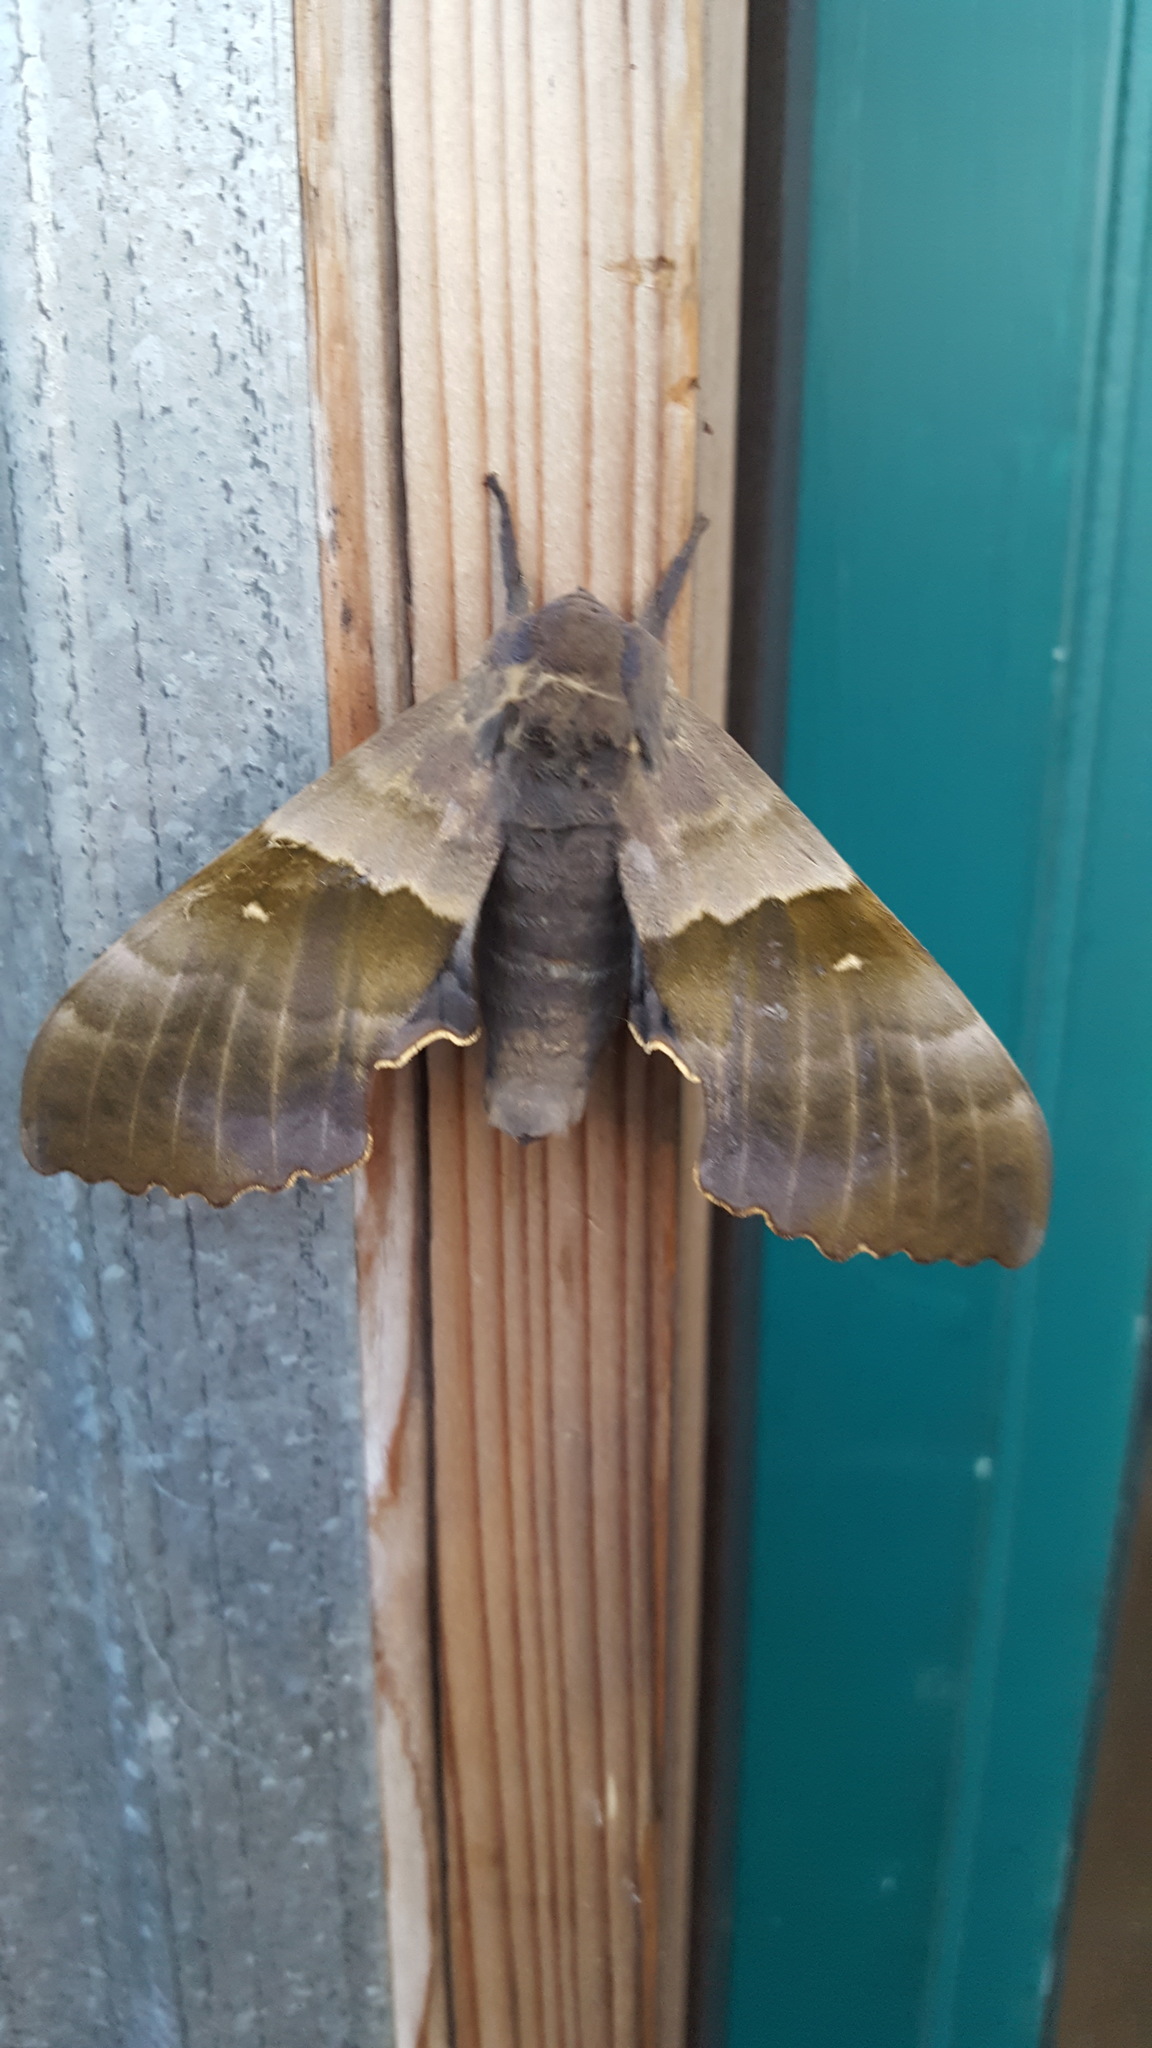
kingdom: Animalia
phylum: Arthropoda
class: Insecta
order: Lepidoptera
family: Sphingidae
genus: Pachysphinx
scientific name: Pachysphinx modesta
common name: Big poplar sphinx
